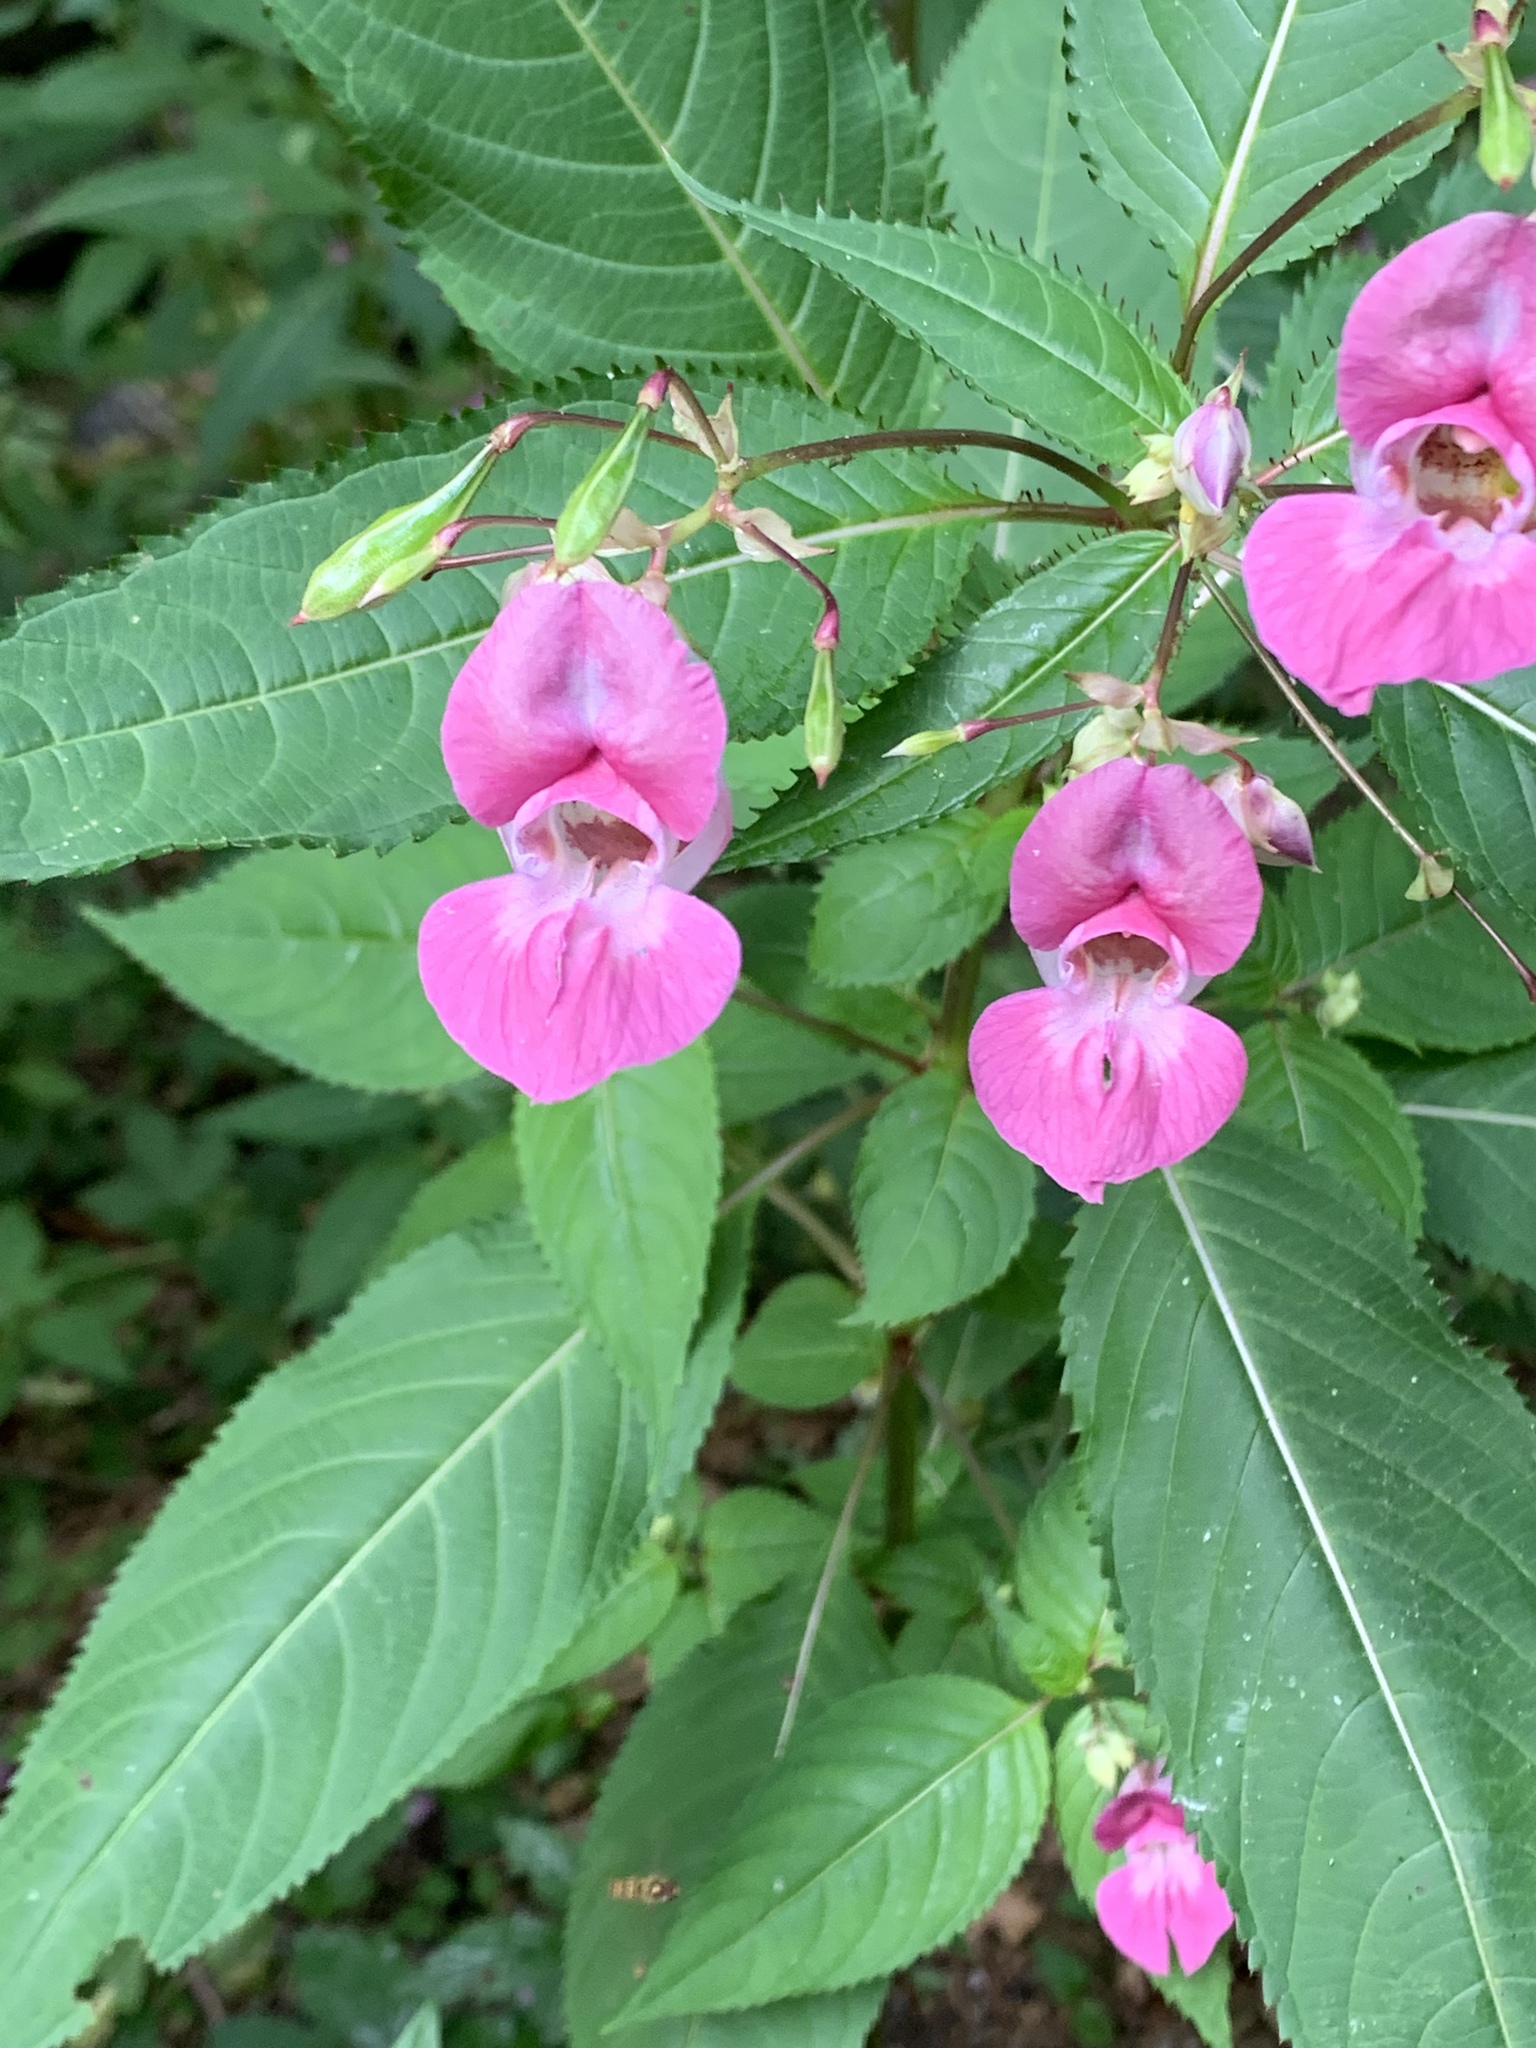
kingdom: Plantae
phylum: Tracheophyta
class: Magnoliopsida
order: Ericales
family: Balsaminaceae
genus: Impatiens
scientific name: Impatiens glandulifera
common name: Himalayan balsam
